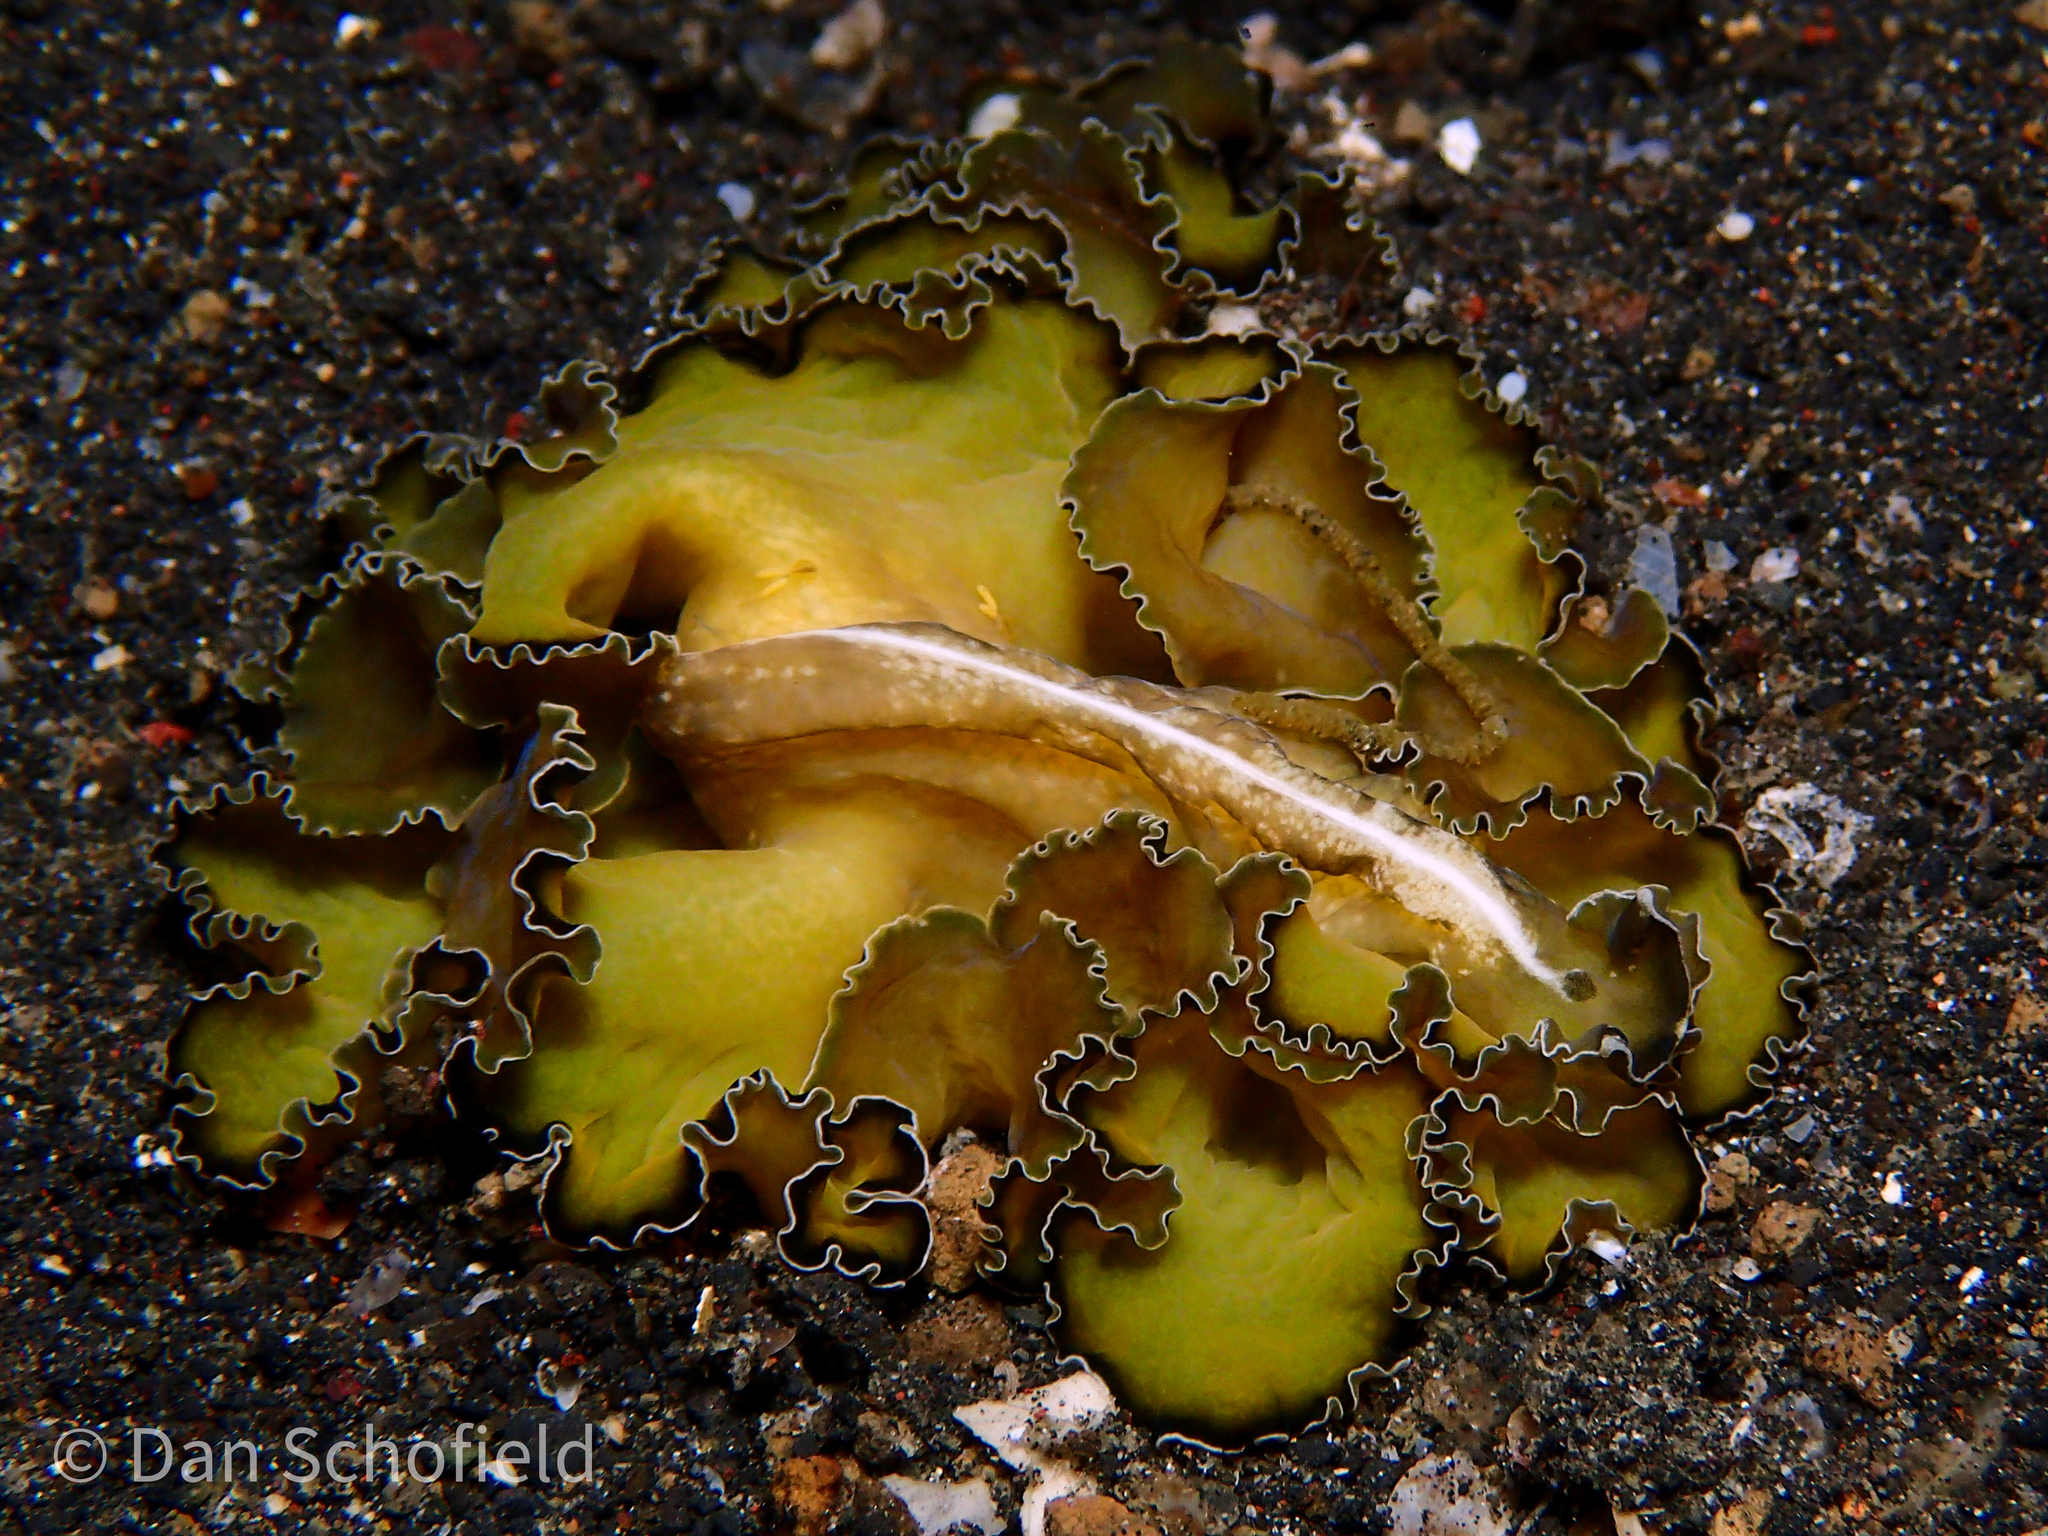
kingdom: Animalia
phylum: Platyhelminthes
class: Turbellaria
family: Pseudocerotidae
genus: Pseudobiceros
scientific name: Pseudobiceros flowersi
